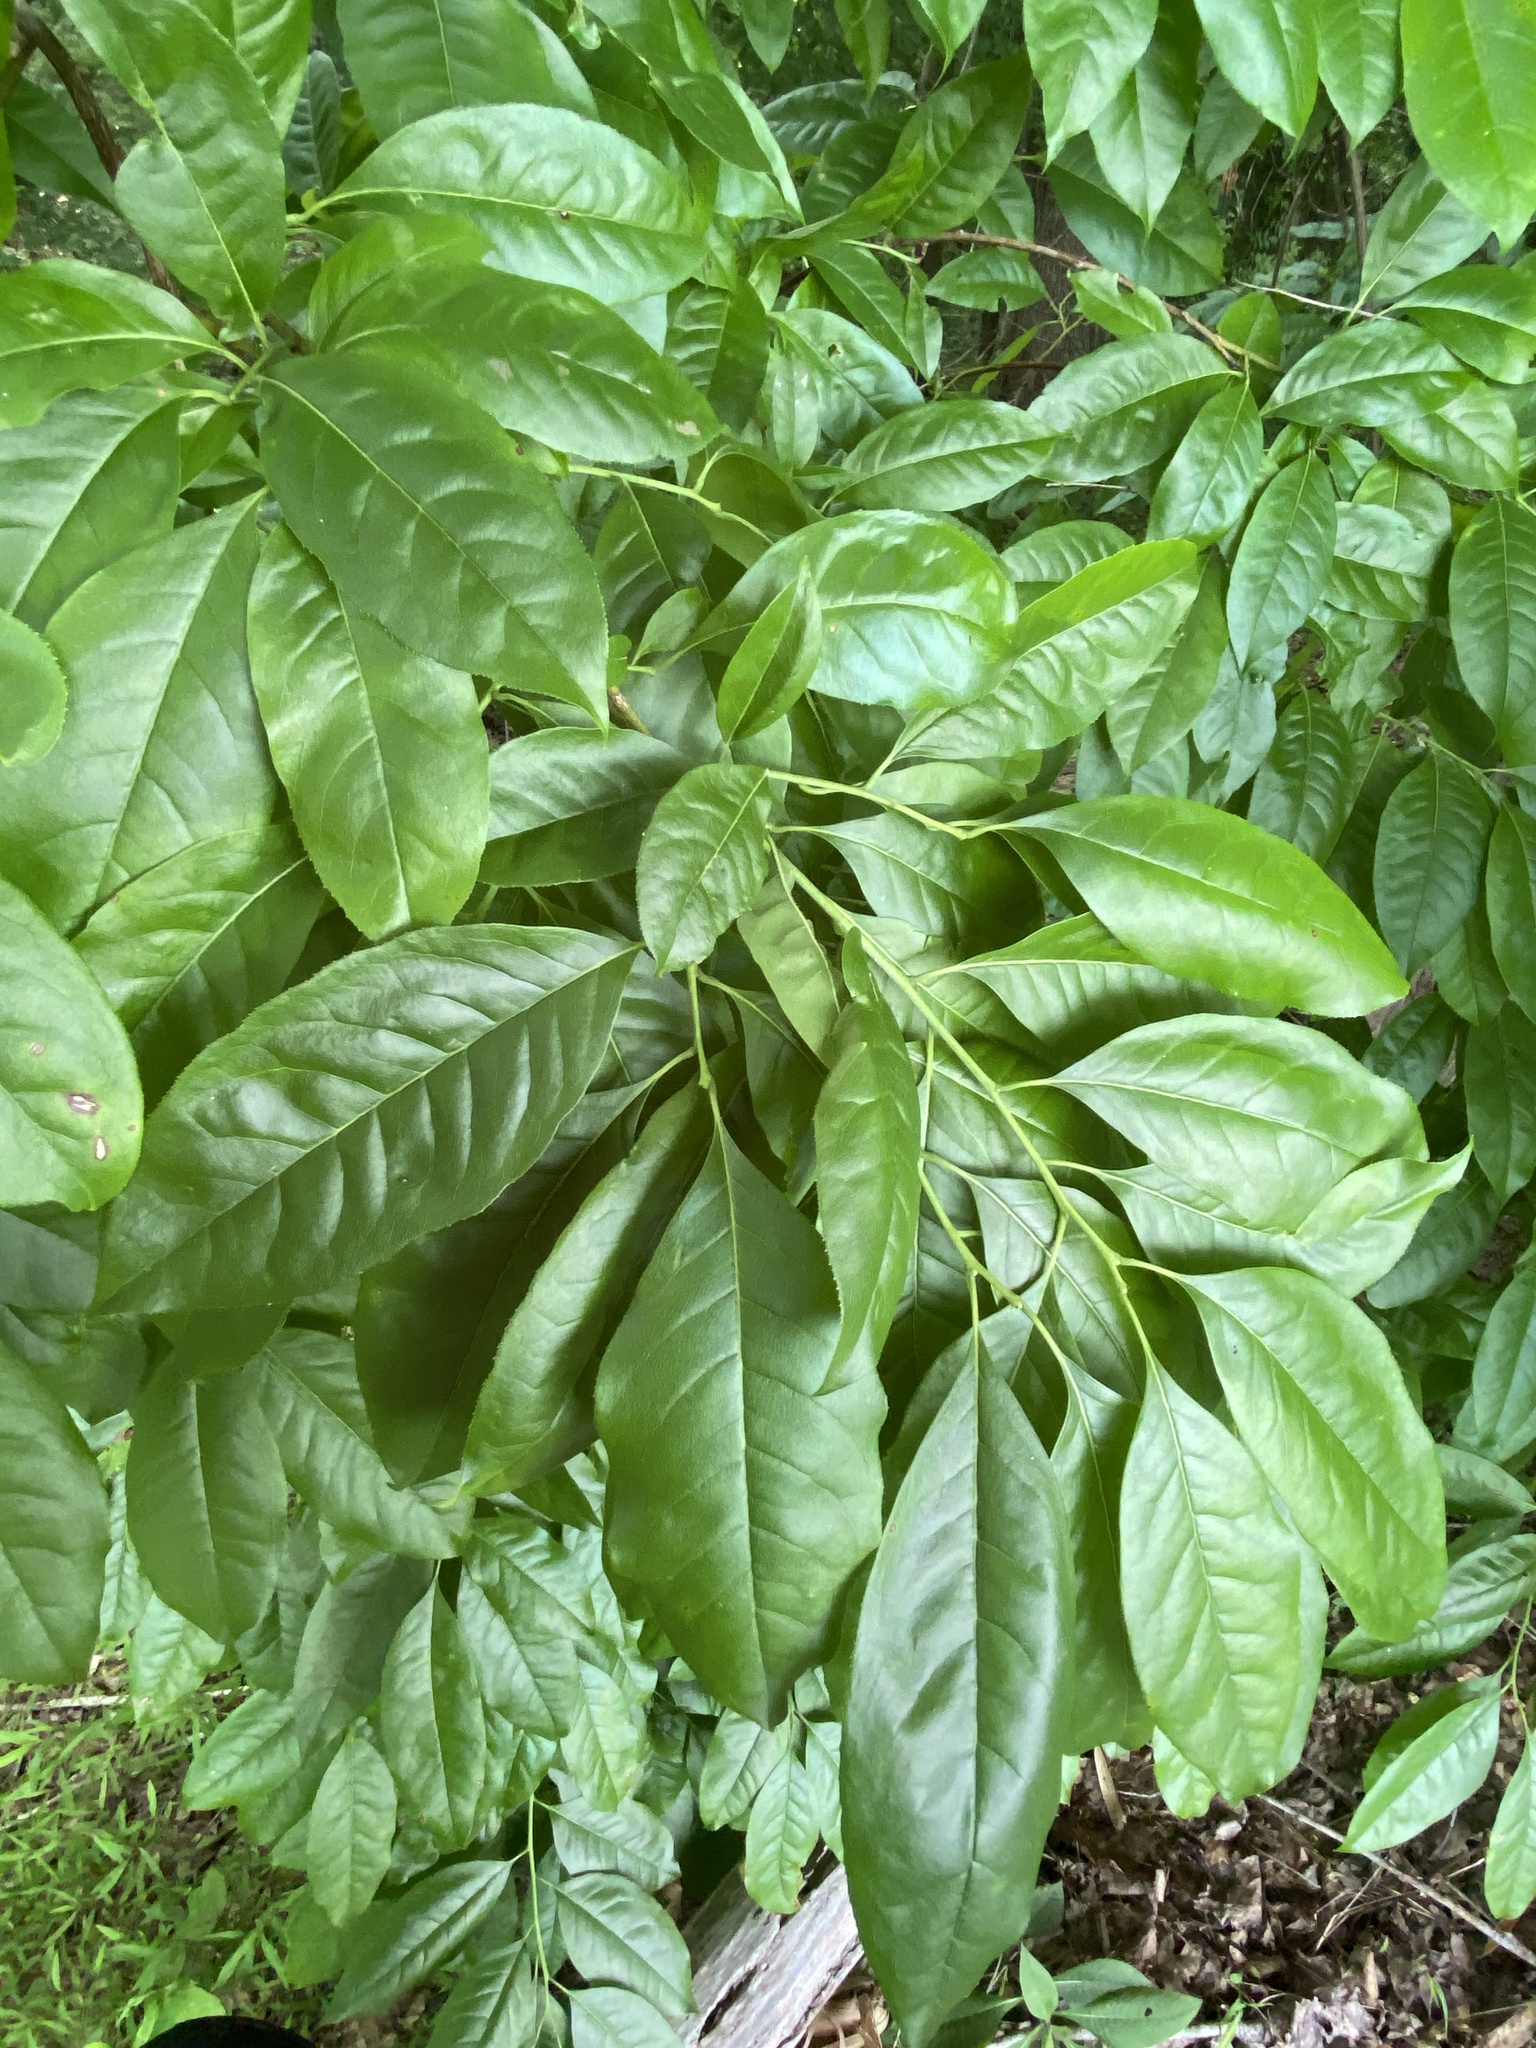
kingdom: Plantae
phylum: Tracheophyta
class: Magnoliopsida
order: Ericales
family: Ericaceae
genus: Oxydendrum
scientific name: Oxydendrum arboreum
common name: Sourwood
